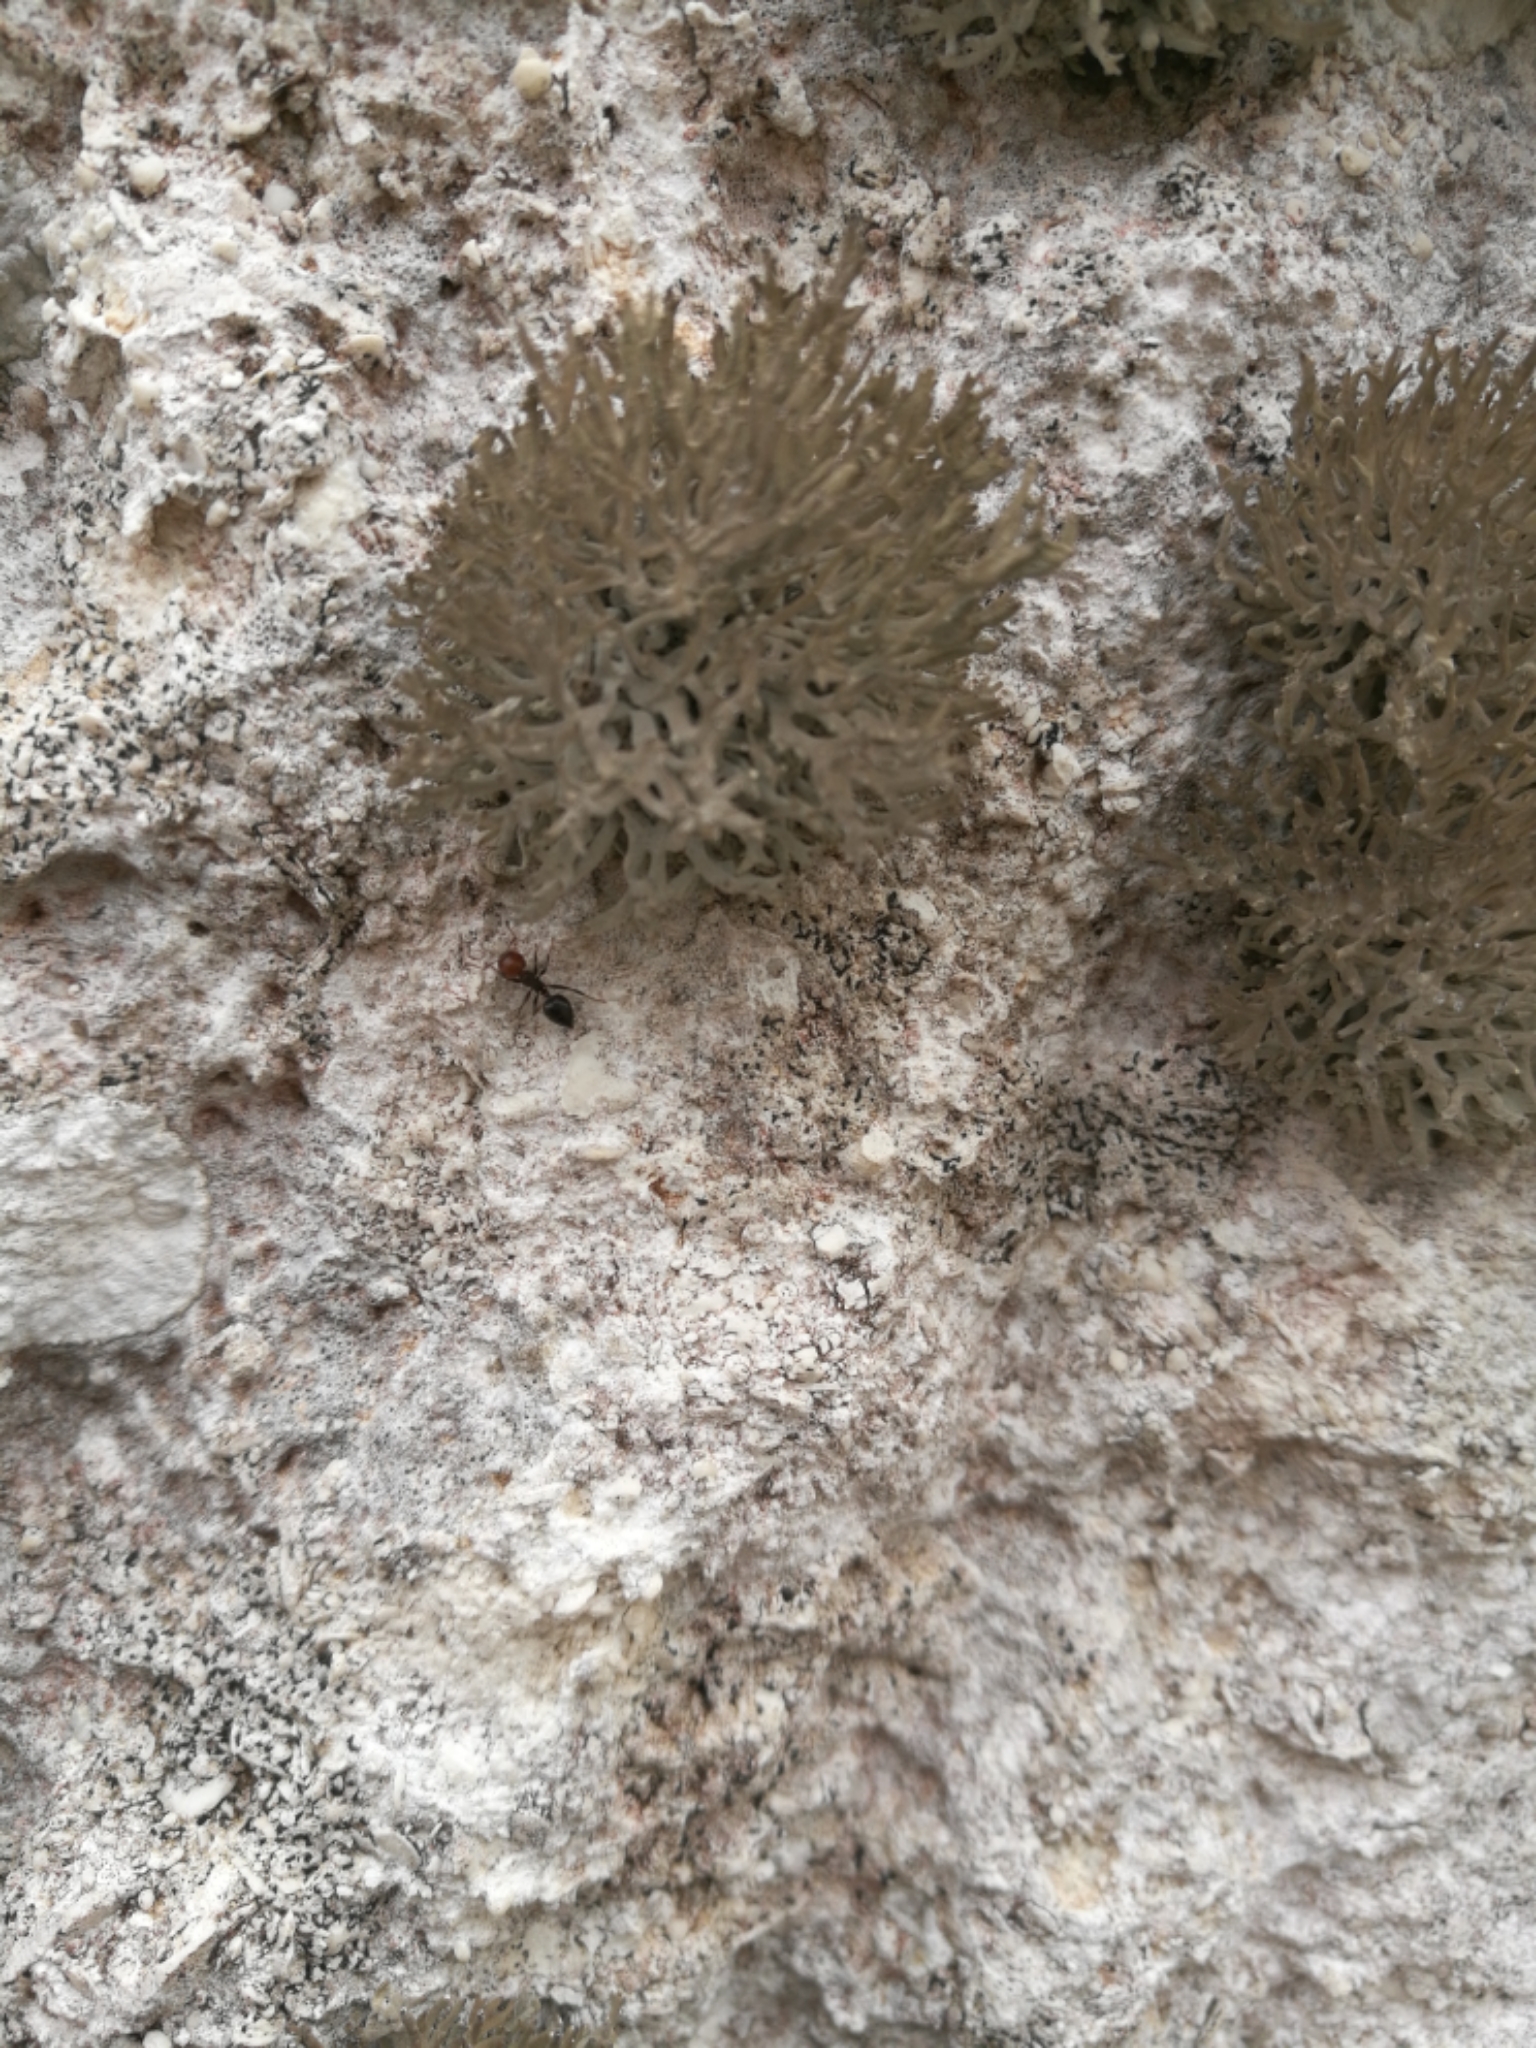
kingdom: Animalia
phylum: Arthropoda
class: Insecta
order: Hymenoptera
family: Formicidae
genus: Crematogaster
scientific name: Crematogaster scutellaris
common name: Fourmi du liège
